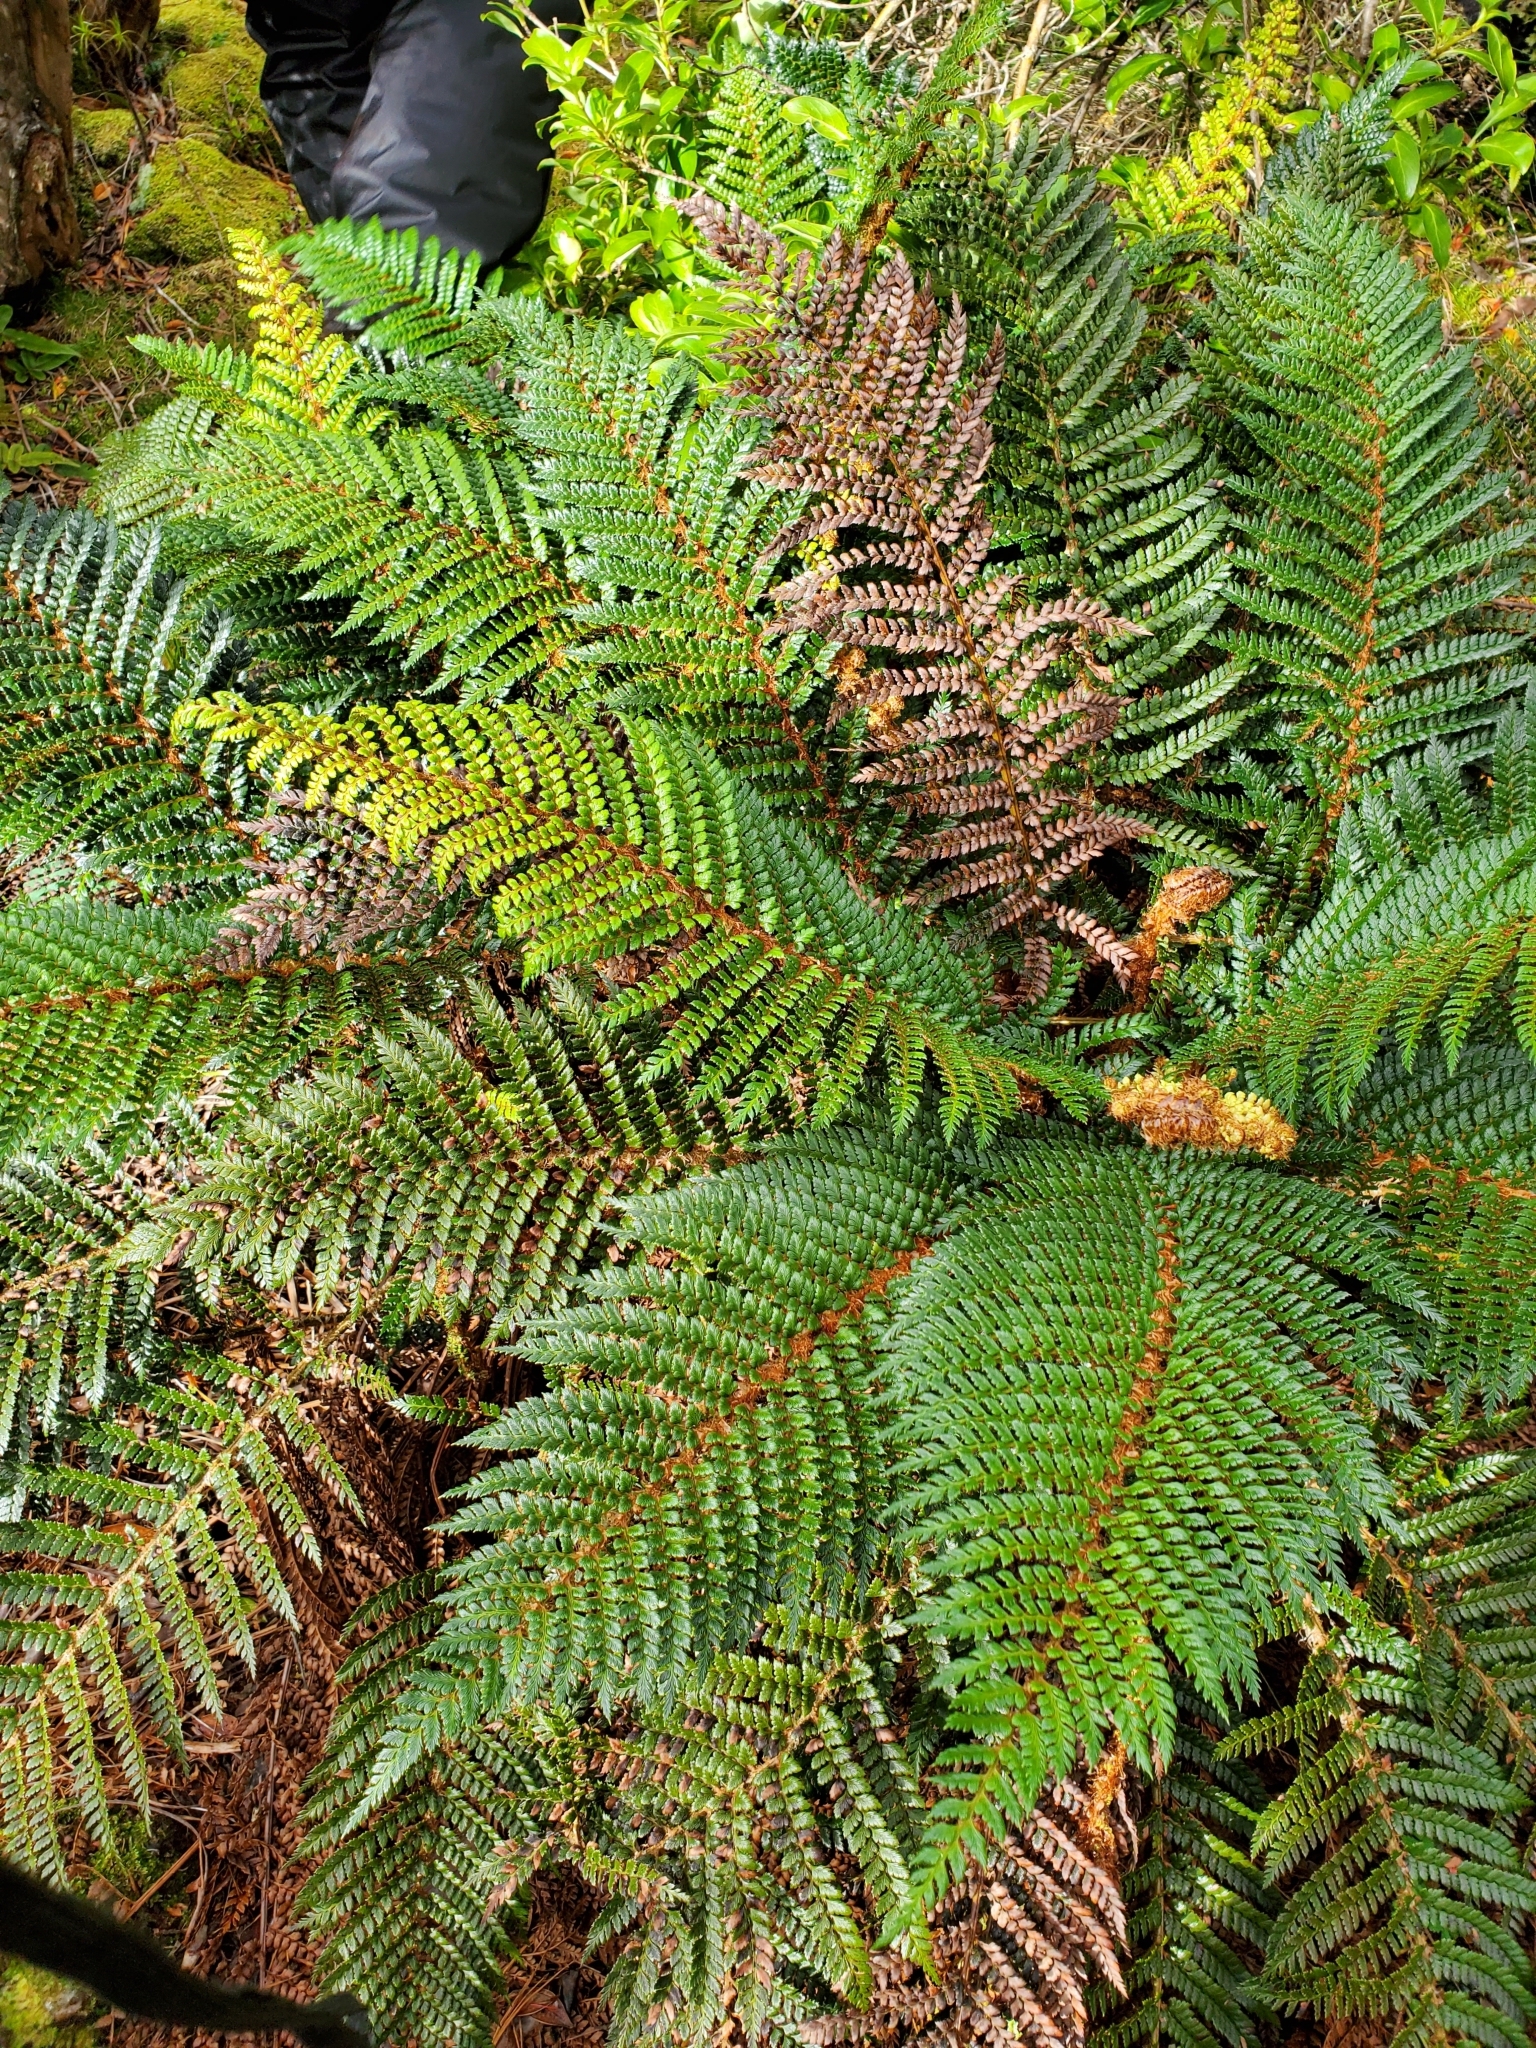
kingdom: Plantae
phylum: Tracheophyta
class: Polypodiopsida
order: Polypodiales
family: Dryopteridaceae
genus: Polystichum
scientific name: Polystichum vestitum
